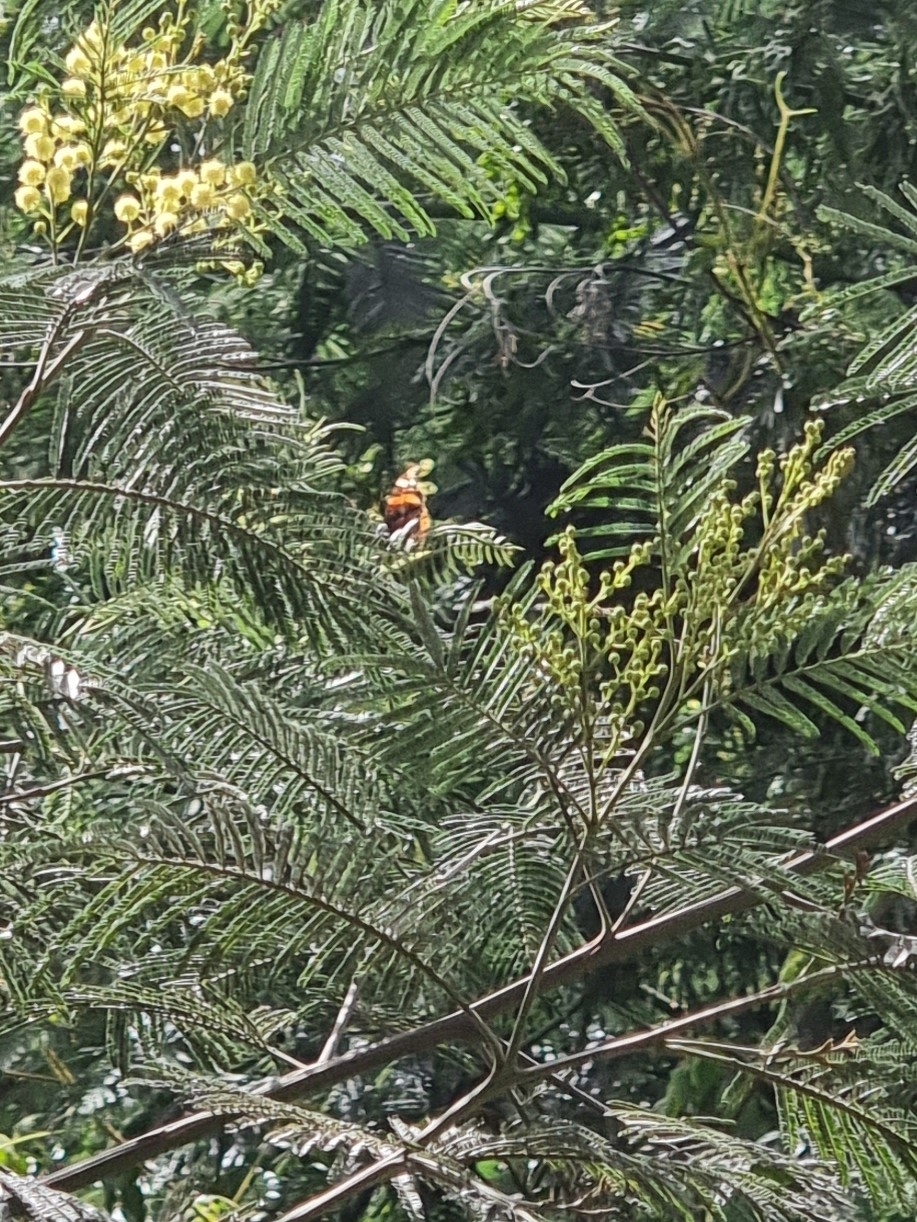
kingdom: Animalia
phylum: Arthropoda
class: Insecta
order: Lepidoptera
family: Nymphalidae
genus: Vanessa
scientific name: Vanessa atalanta
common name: Red admiral
